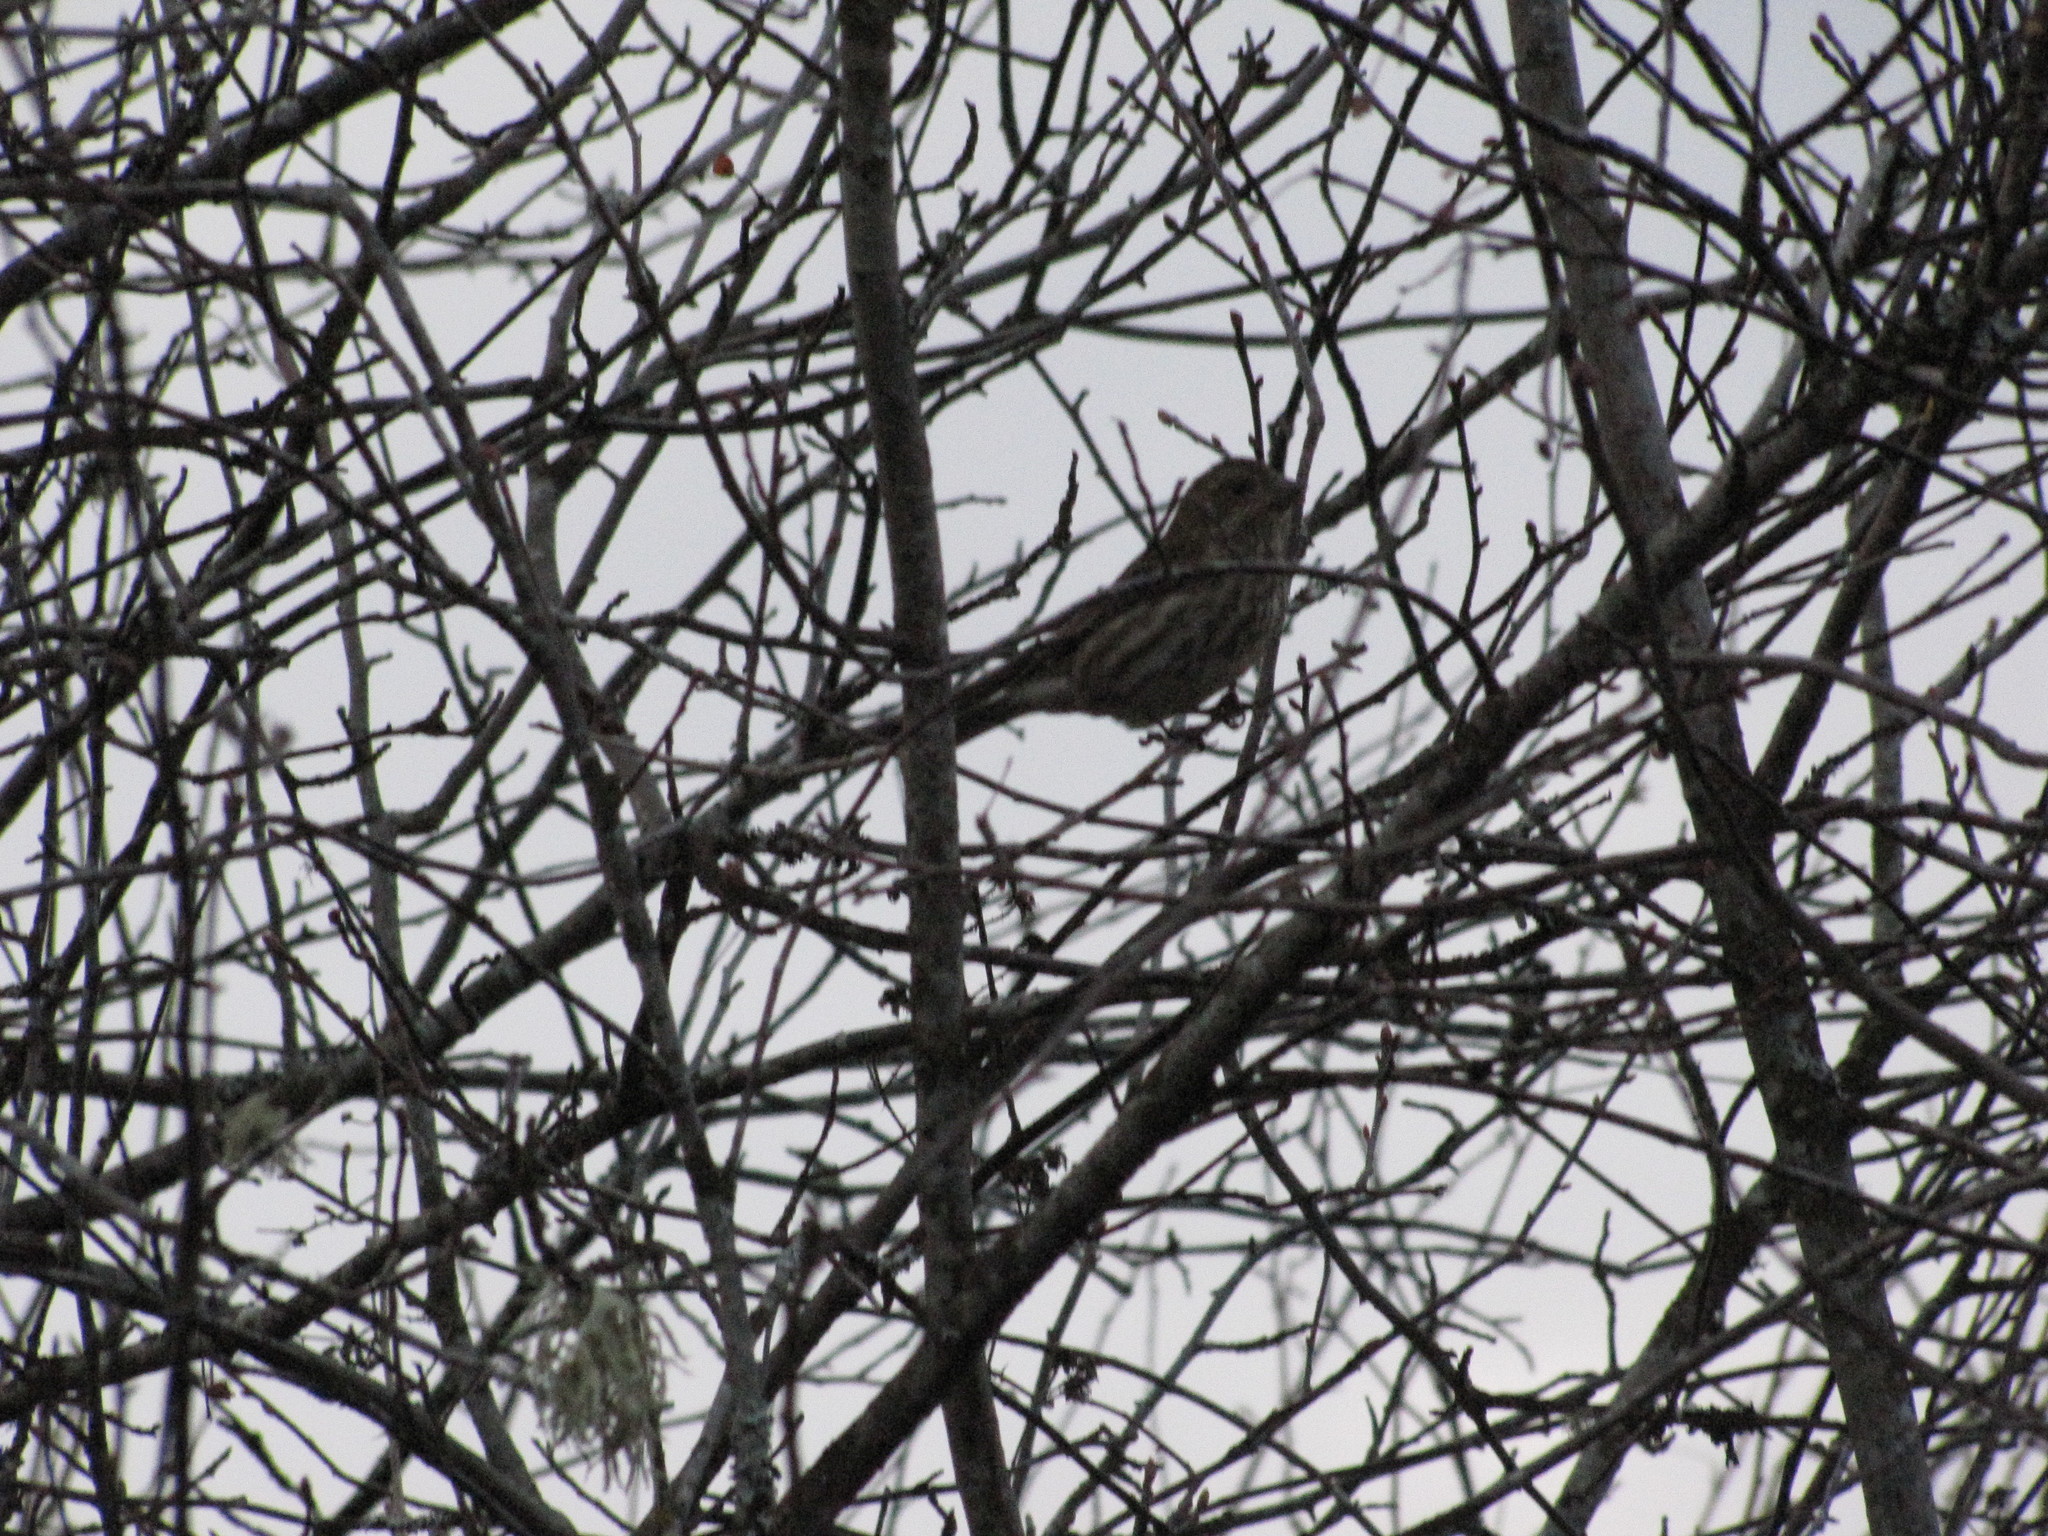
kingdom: Animalia
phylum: Chordata
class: Aves
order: Passeriformes
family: Fringillidae
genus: Haemorhous
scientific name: Haemorhous purpureus
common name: Purple finch
